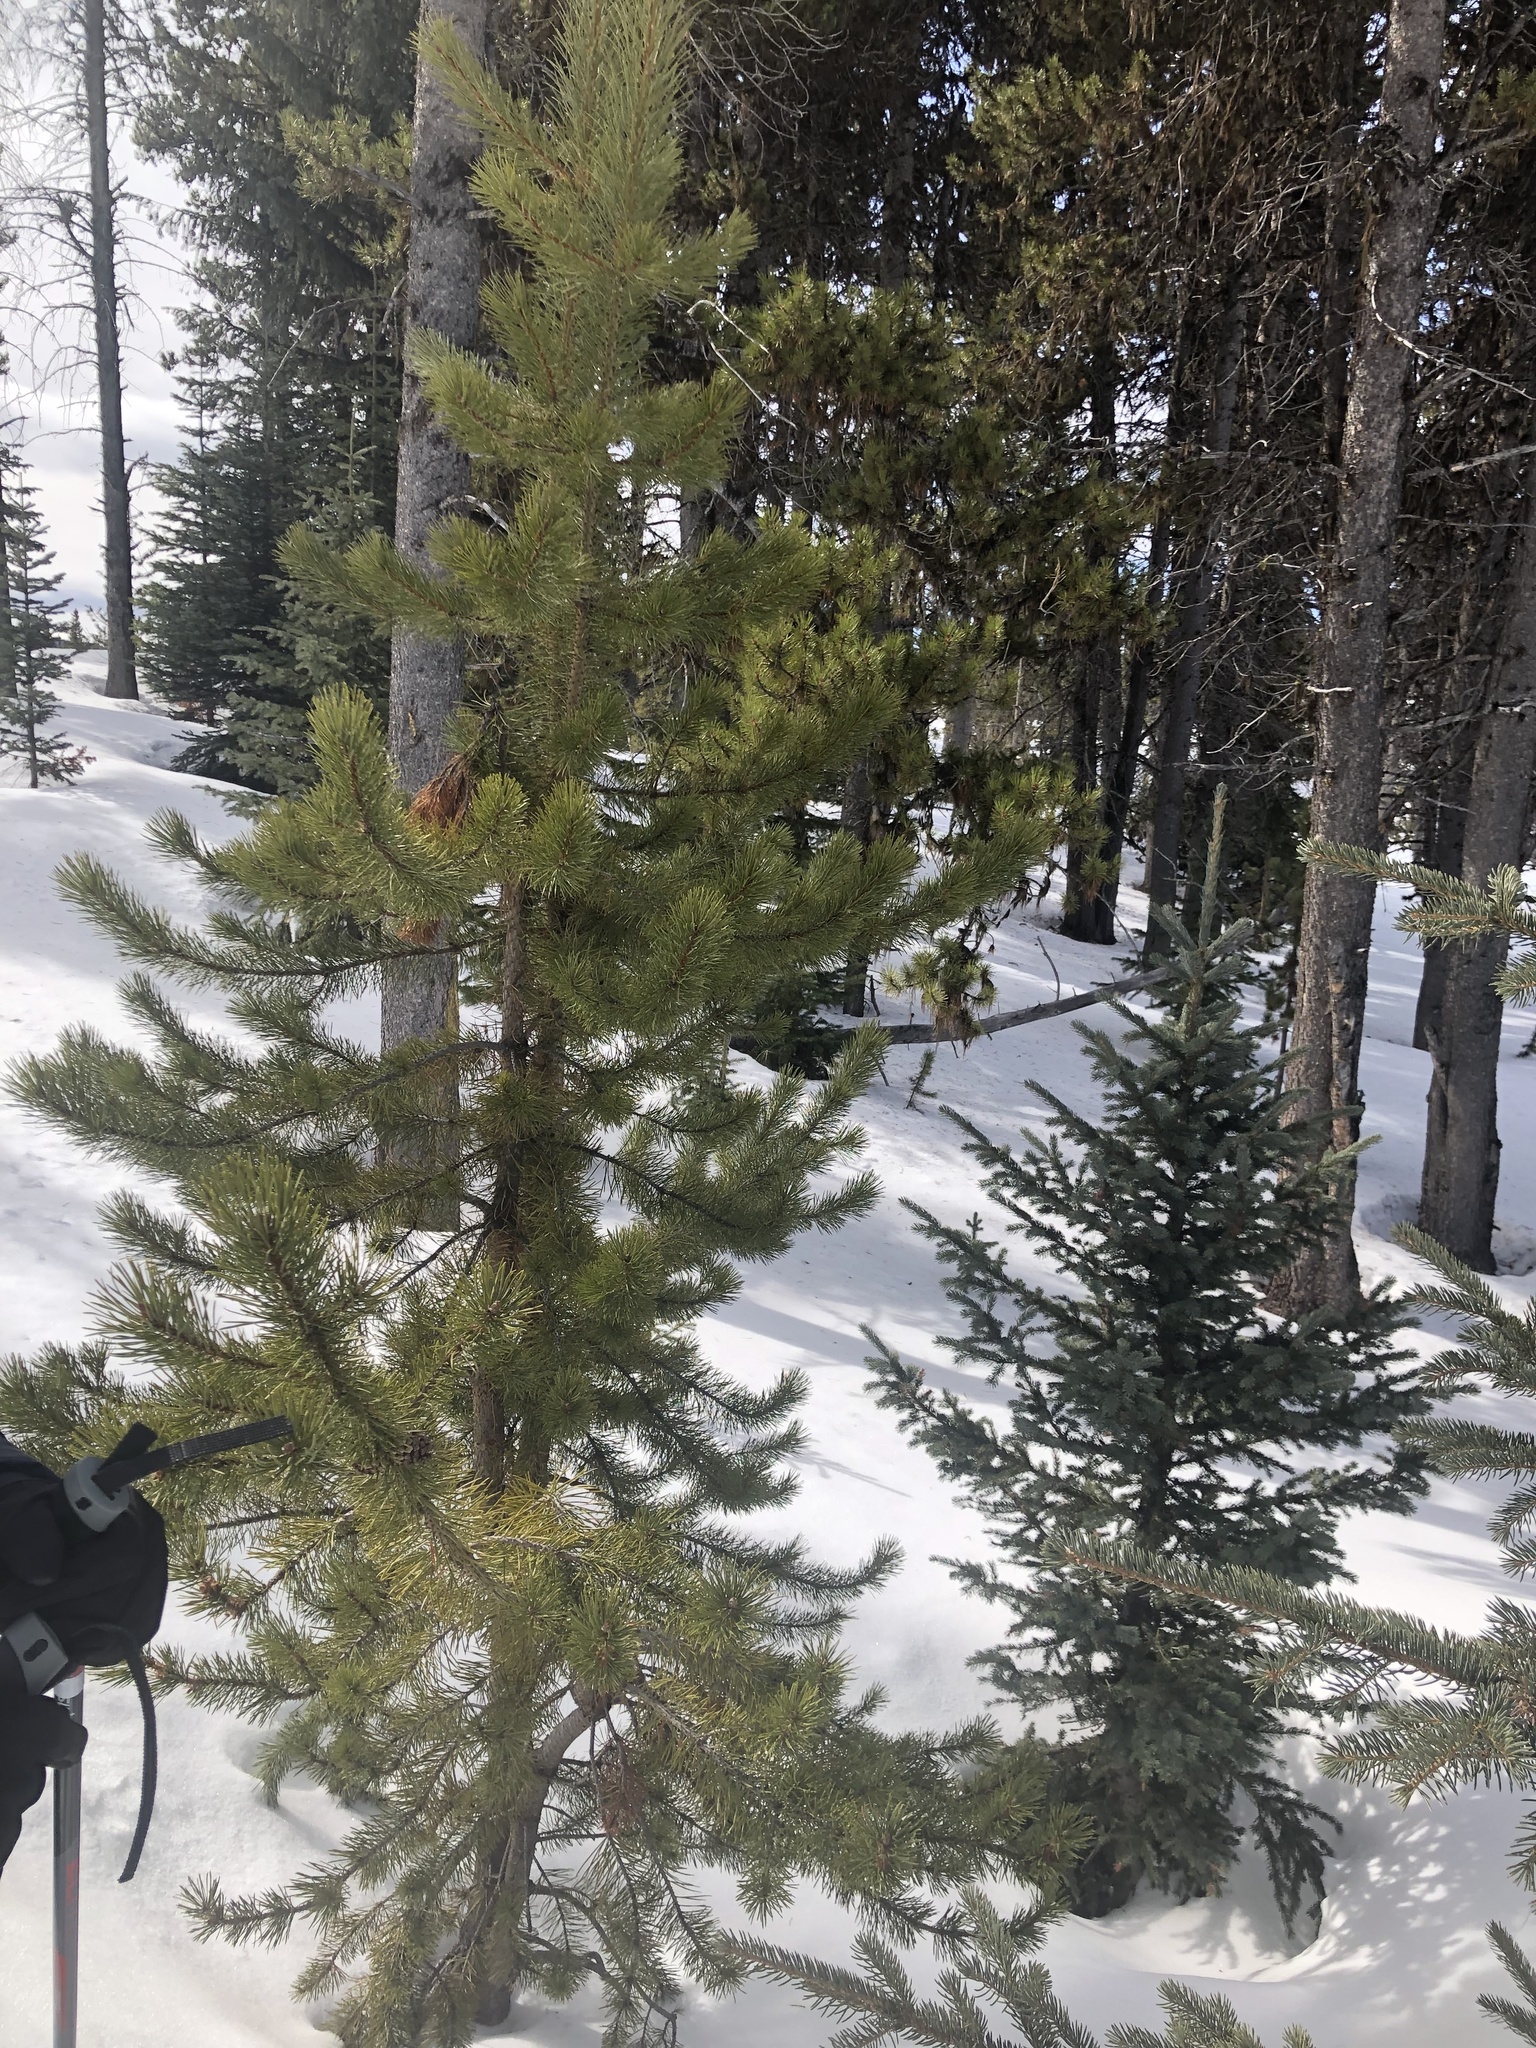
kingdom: Plantae
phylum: Tracheophyta
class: Pinopsida
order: Pinales
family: Pinaceae
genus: Pinus
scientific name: Pinus contorta
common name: Lodgepole pine
